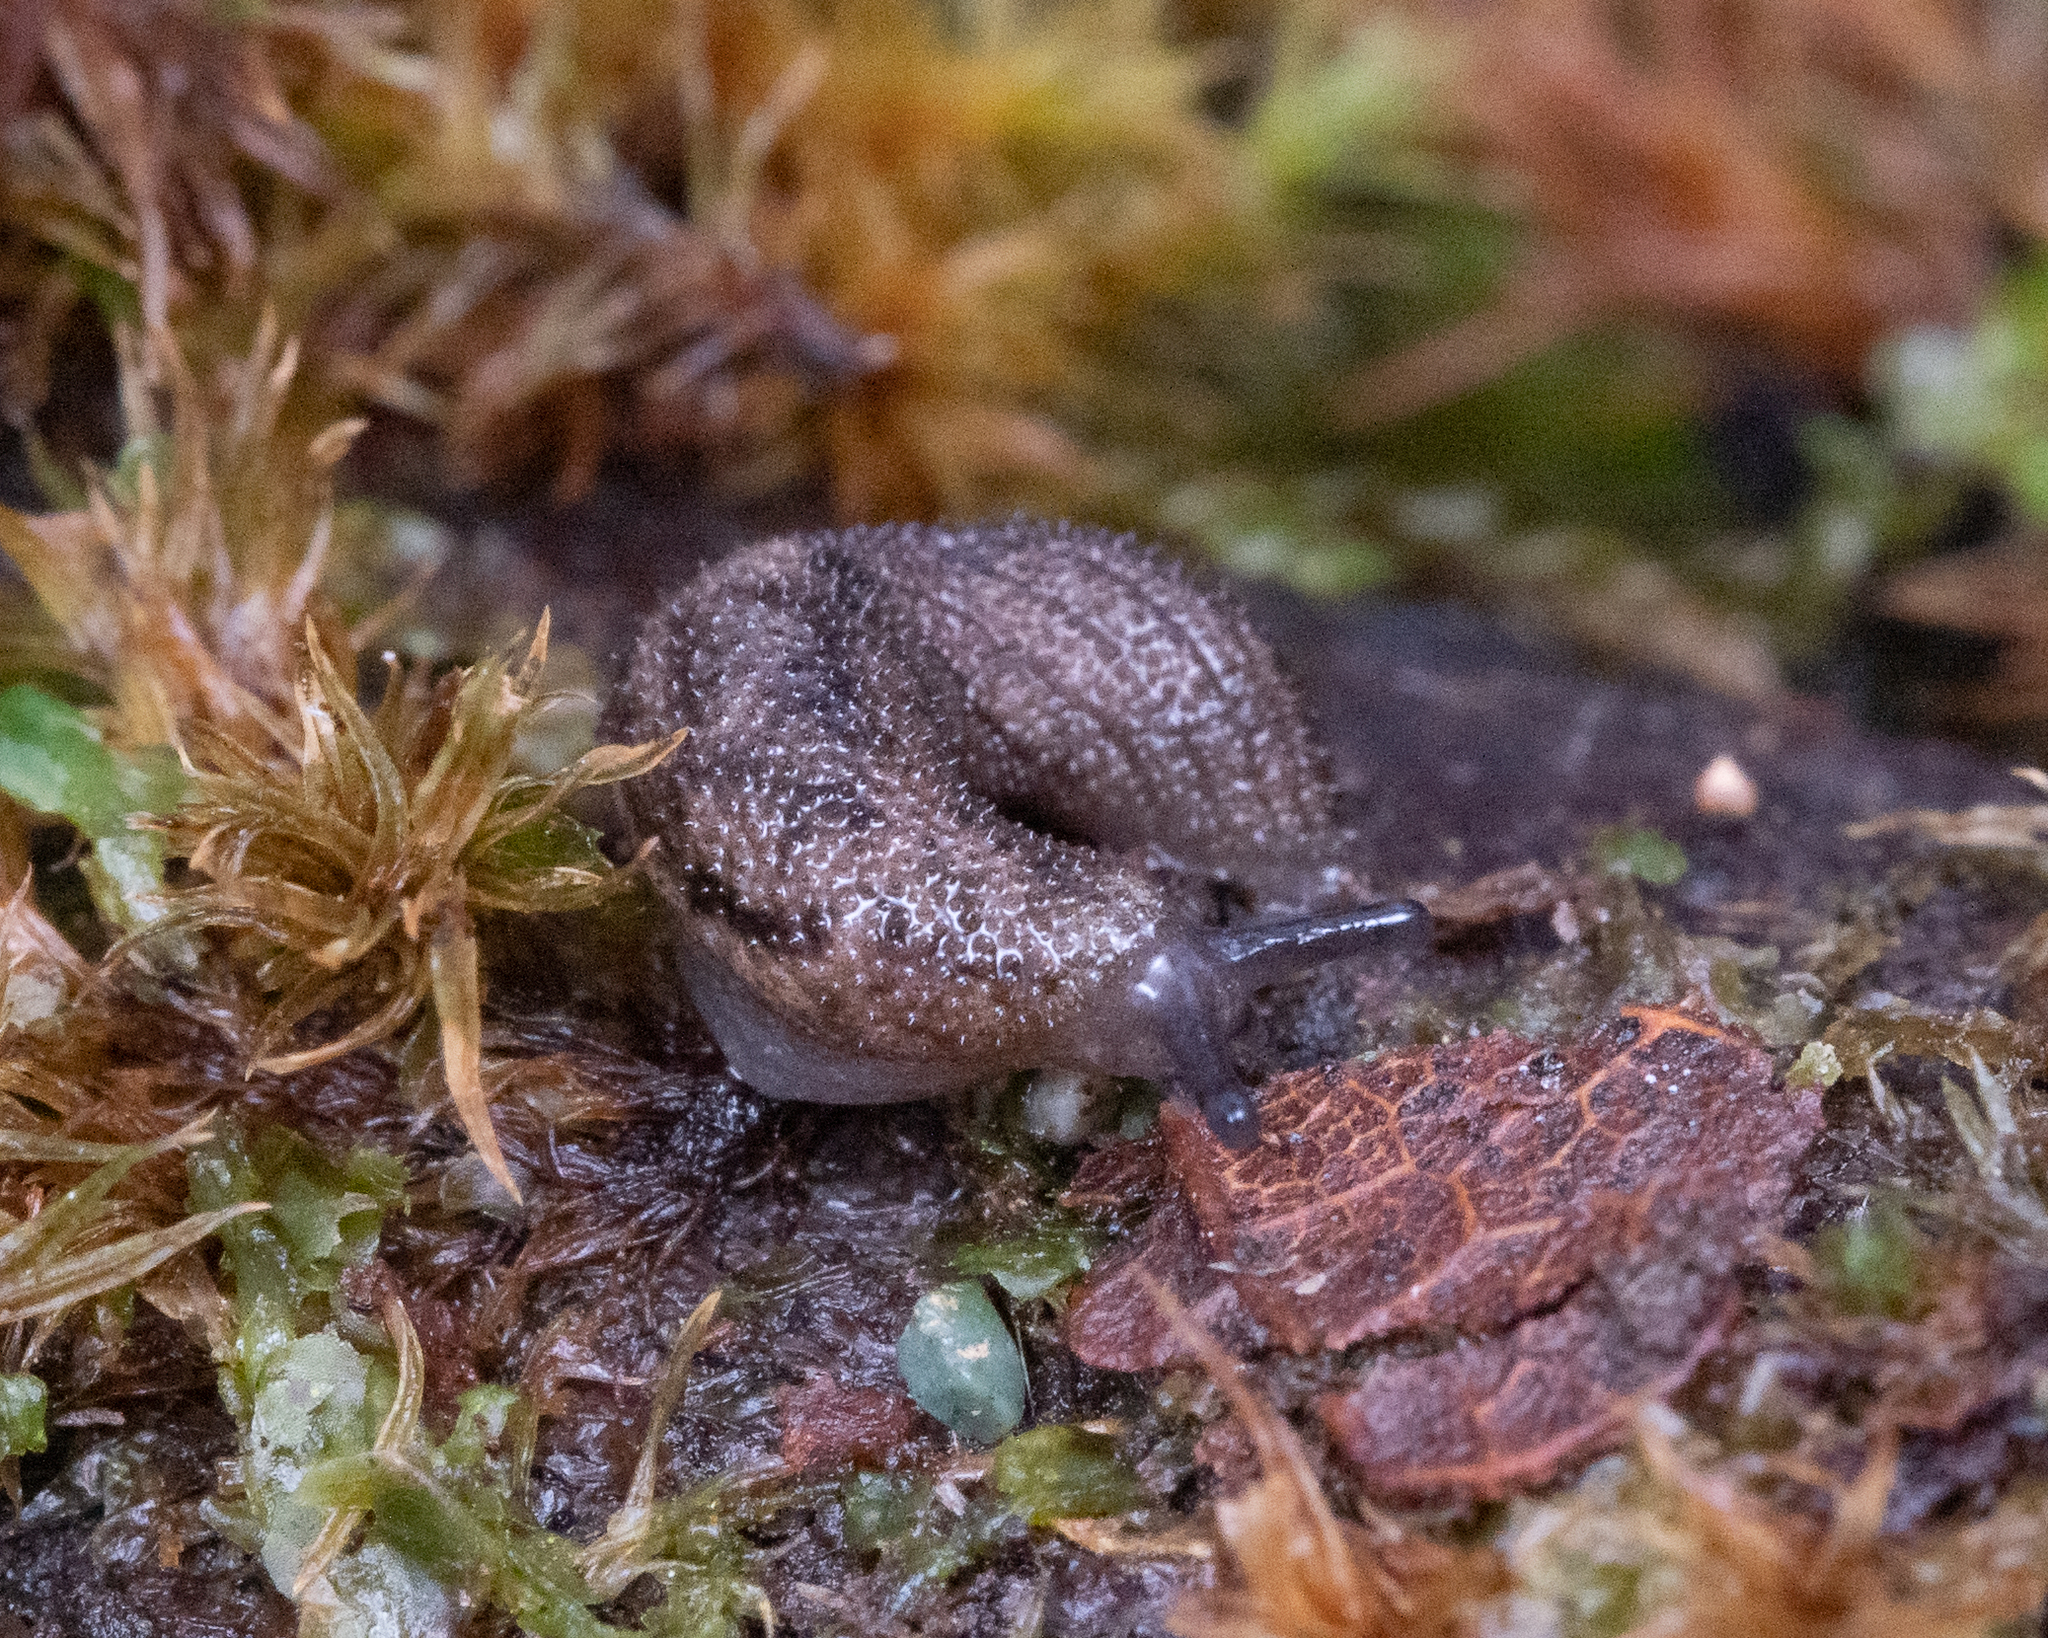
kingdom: Animalia
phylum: Mollusca
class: Gastropoda
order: Stylommatophora
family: Ariolimacidae
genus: Prophysaon
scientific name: Prophysaon dubium
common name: Papillose taildropper
